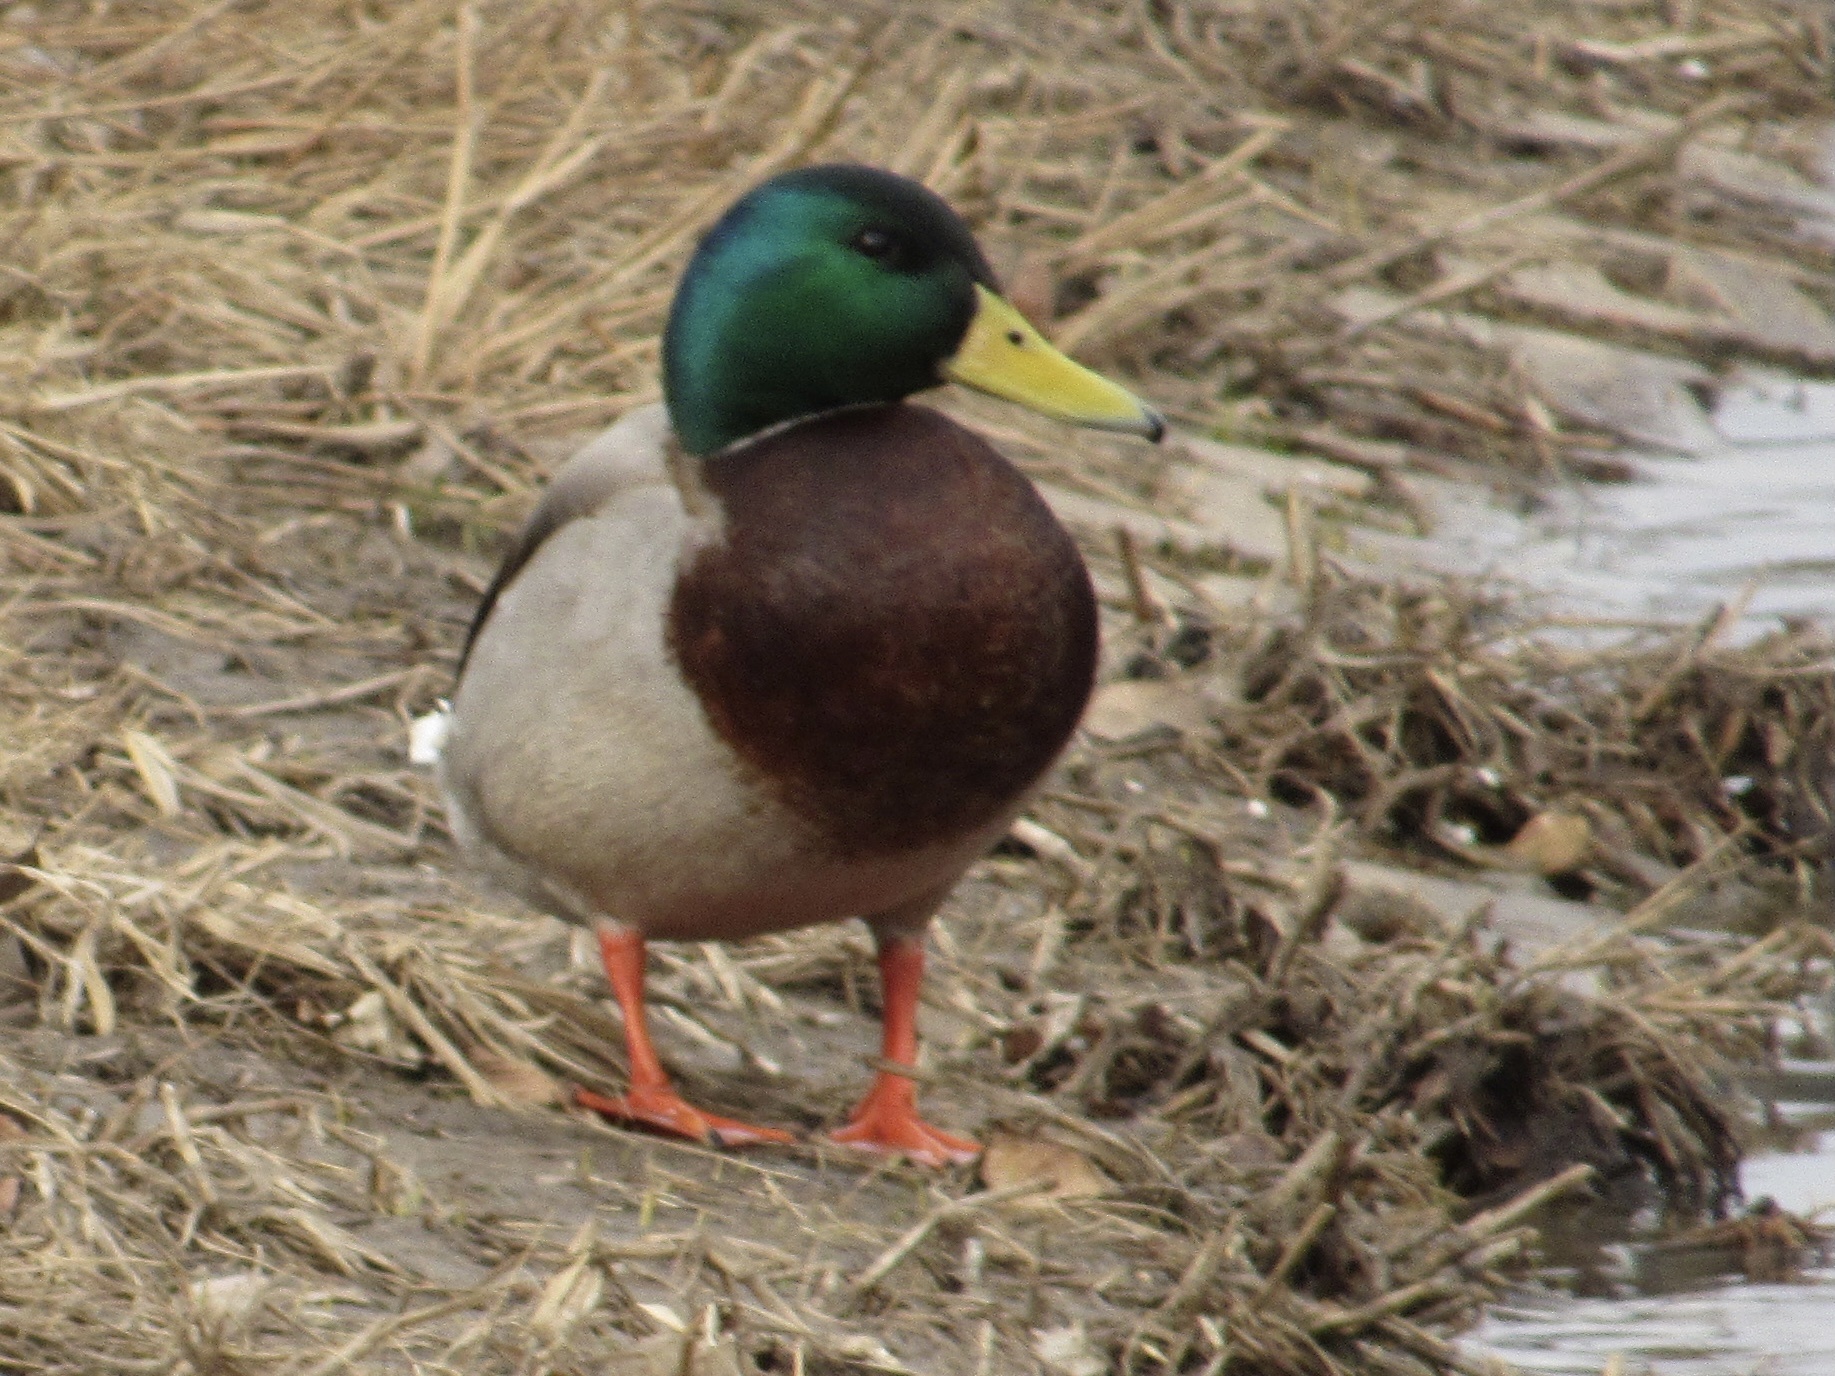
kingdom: Animalia
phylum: Chordata
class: Aves
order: Anseriformes
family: Anatidae
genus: Anas
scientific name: Anas platyrhynchos
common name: Mallard
